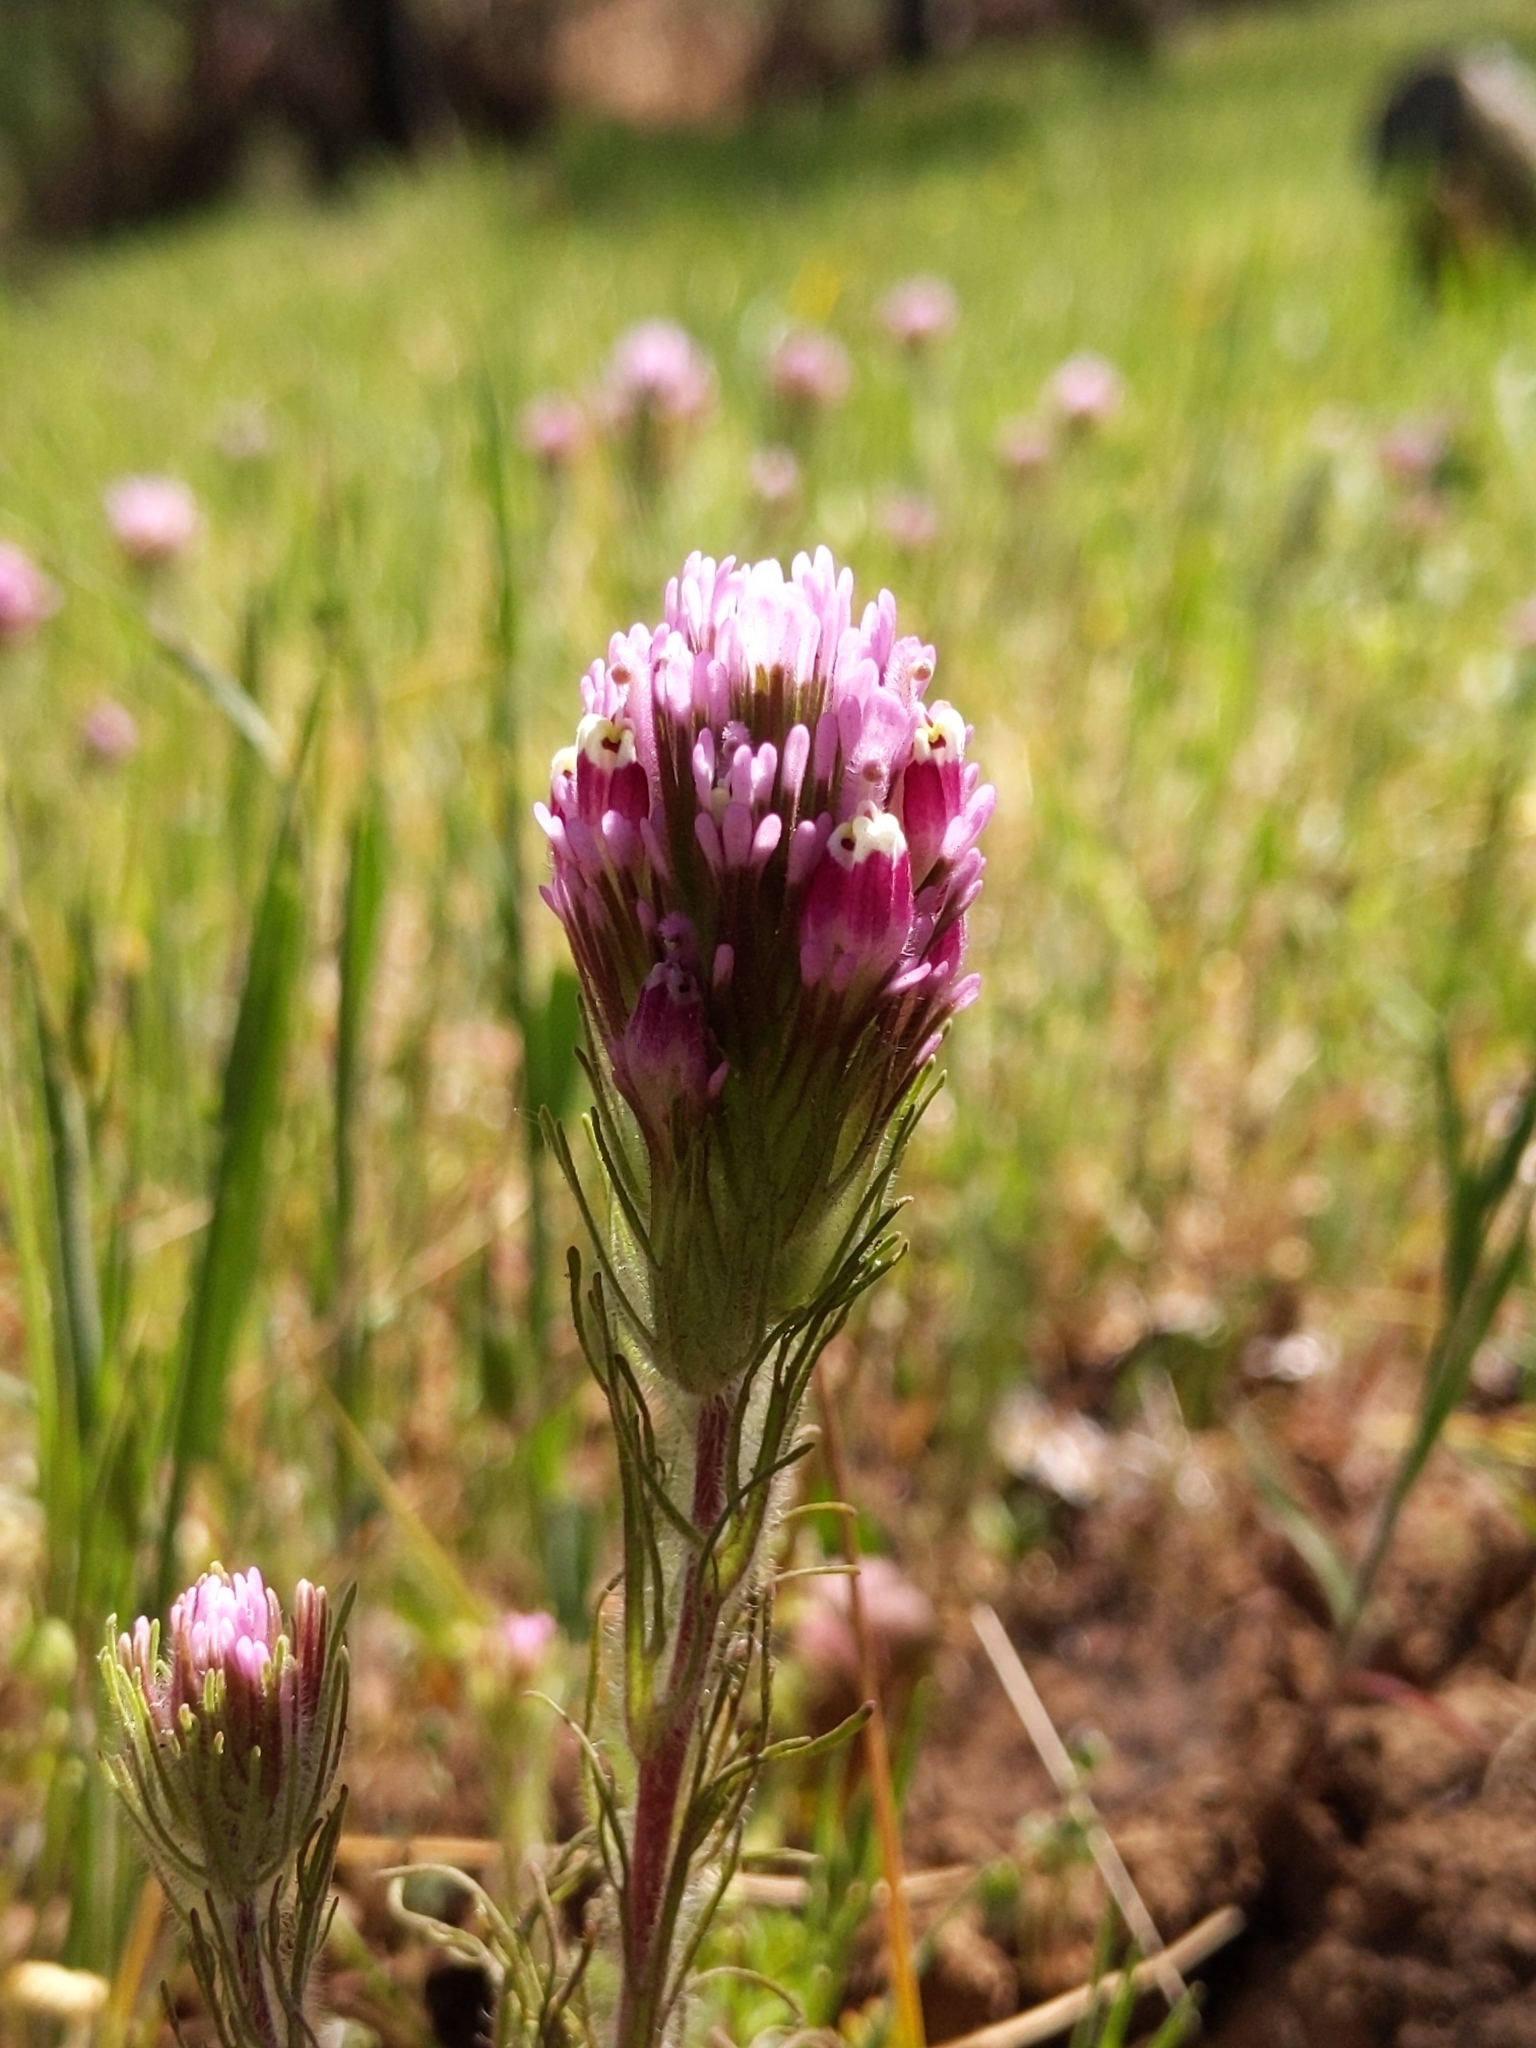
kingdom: Plantae
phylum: Tracheophyta
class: Magnoliopsida
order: Lamiales
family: Orobanchaceae
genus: Castilleja
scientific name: Castilleja exserta
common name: Purple owl-clover
